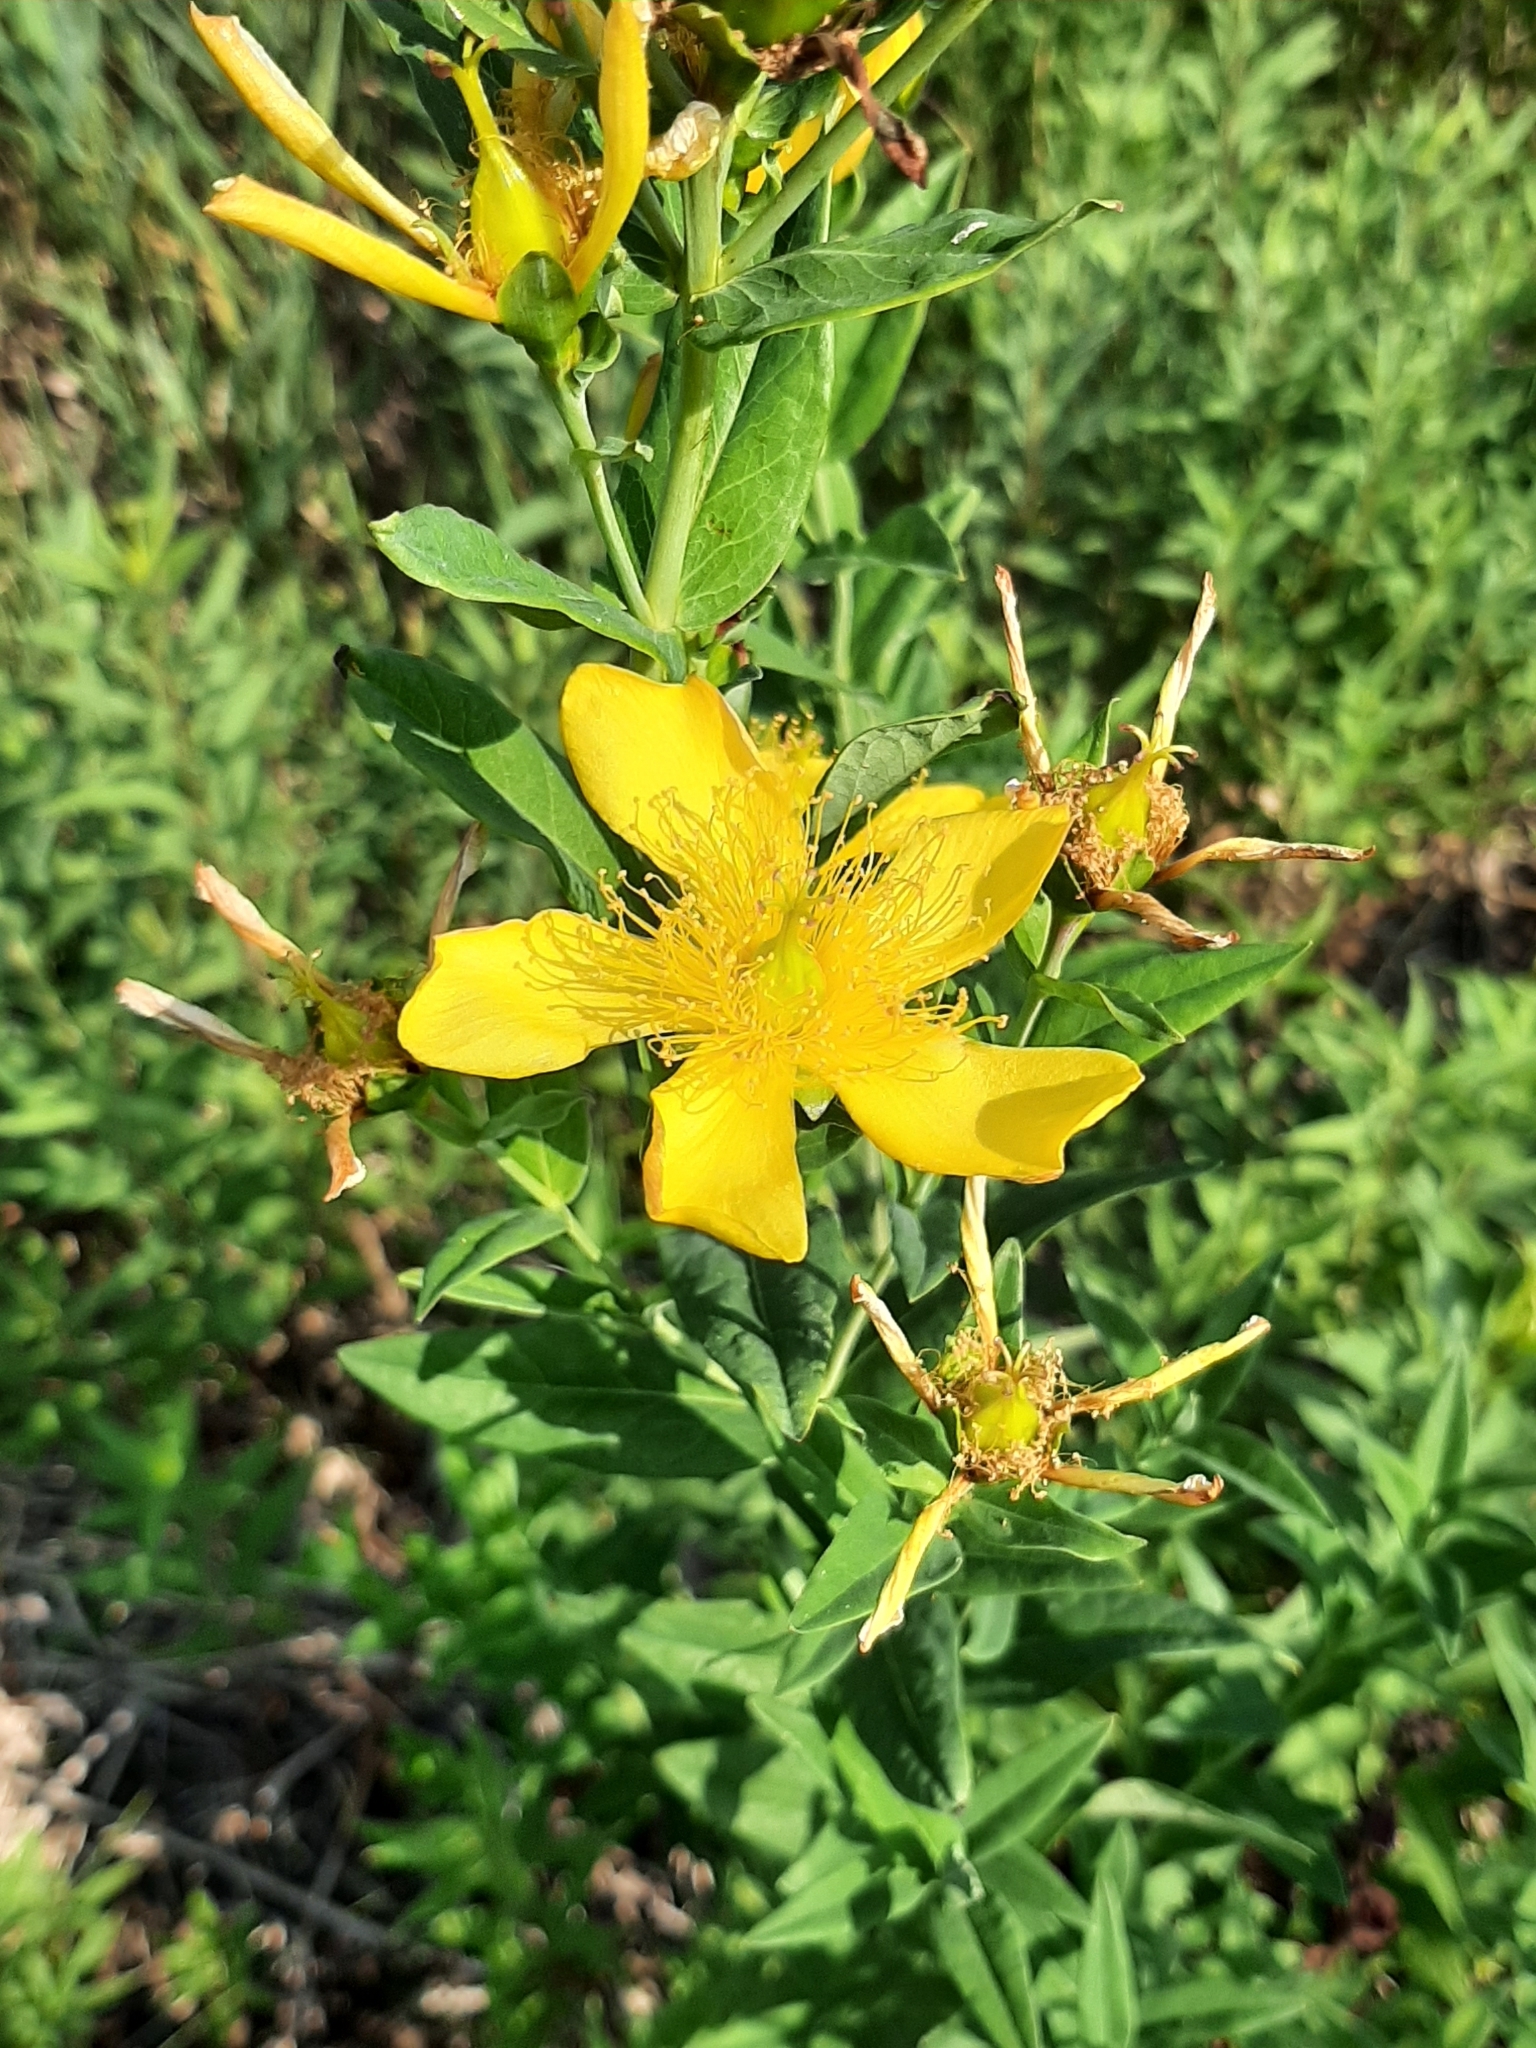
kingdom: Plantae
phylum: Tracheophyta
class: Magnoliopsida
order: Malpighiales
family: Hypericaceae
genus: Hypericum
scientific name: Hypericum ascyron
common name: Giant st. john's-wort
